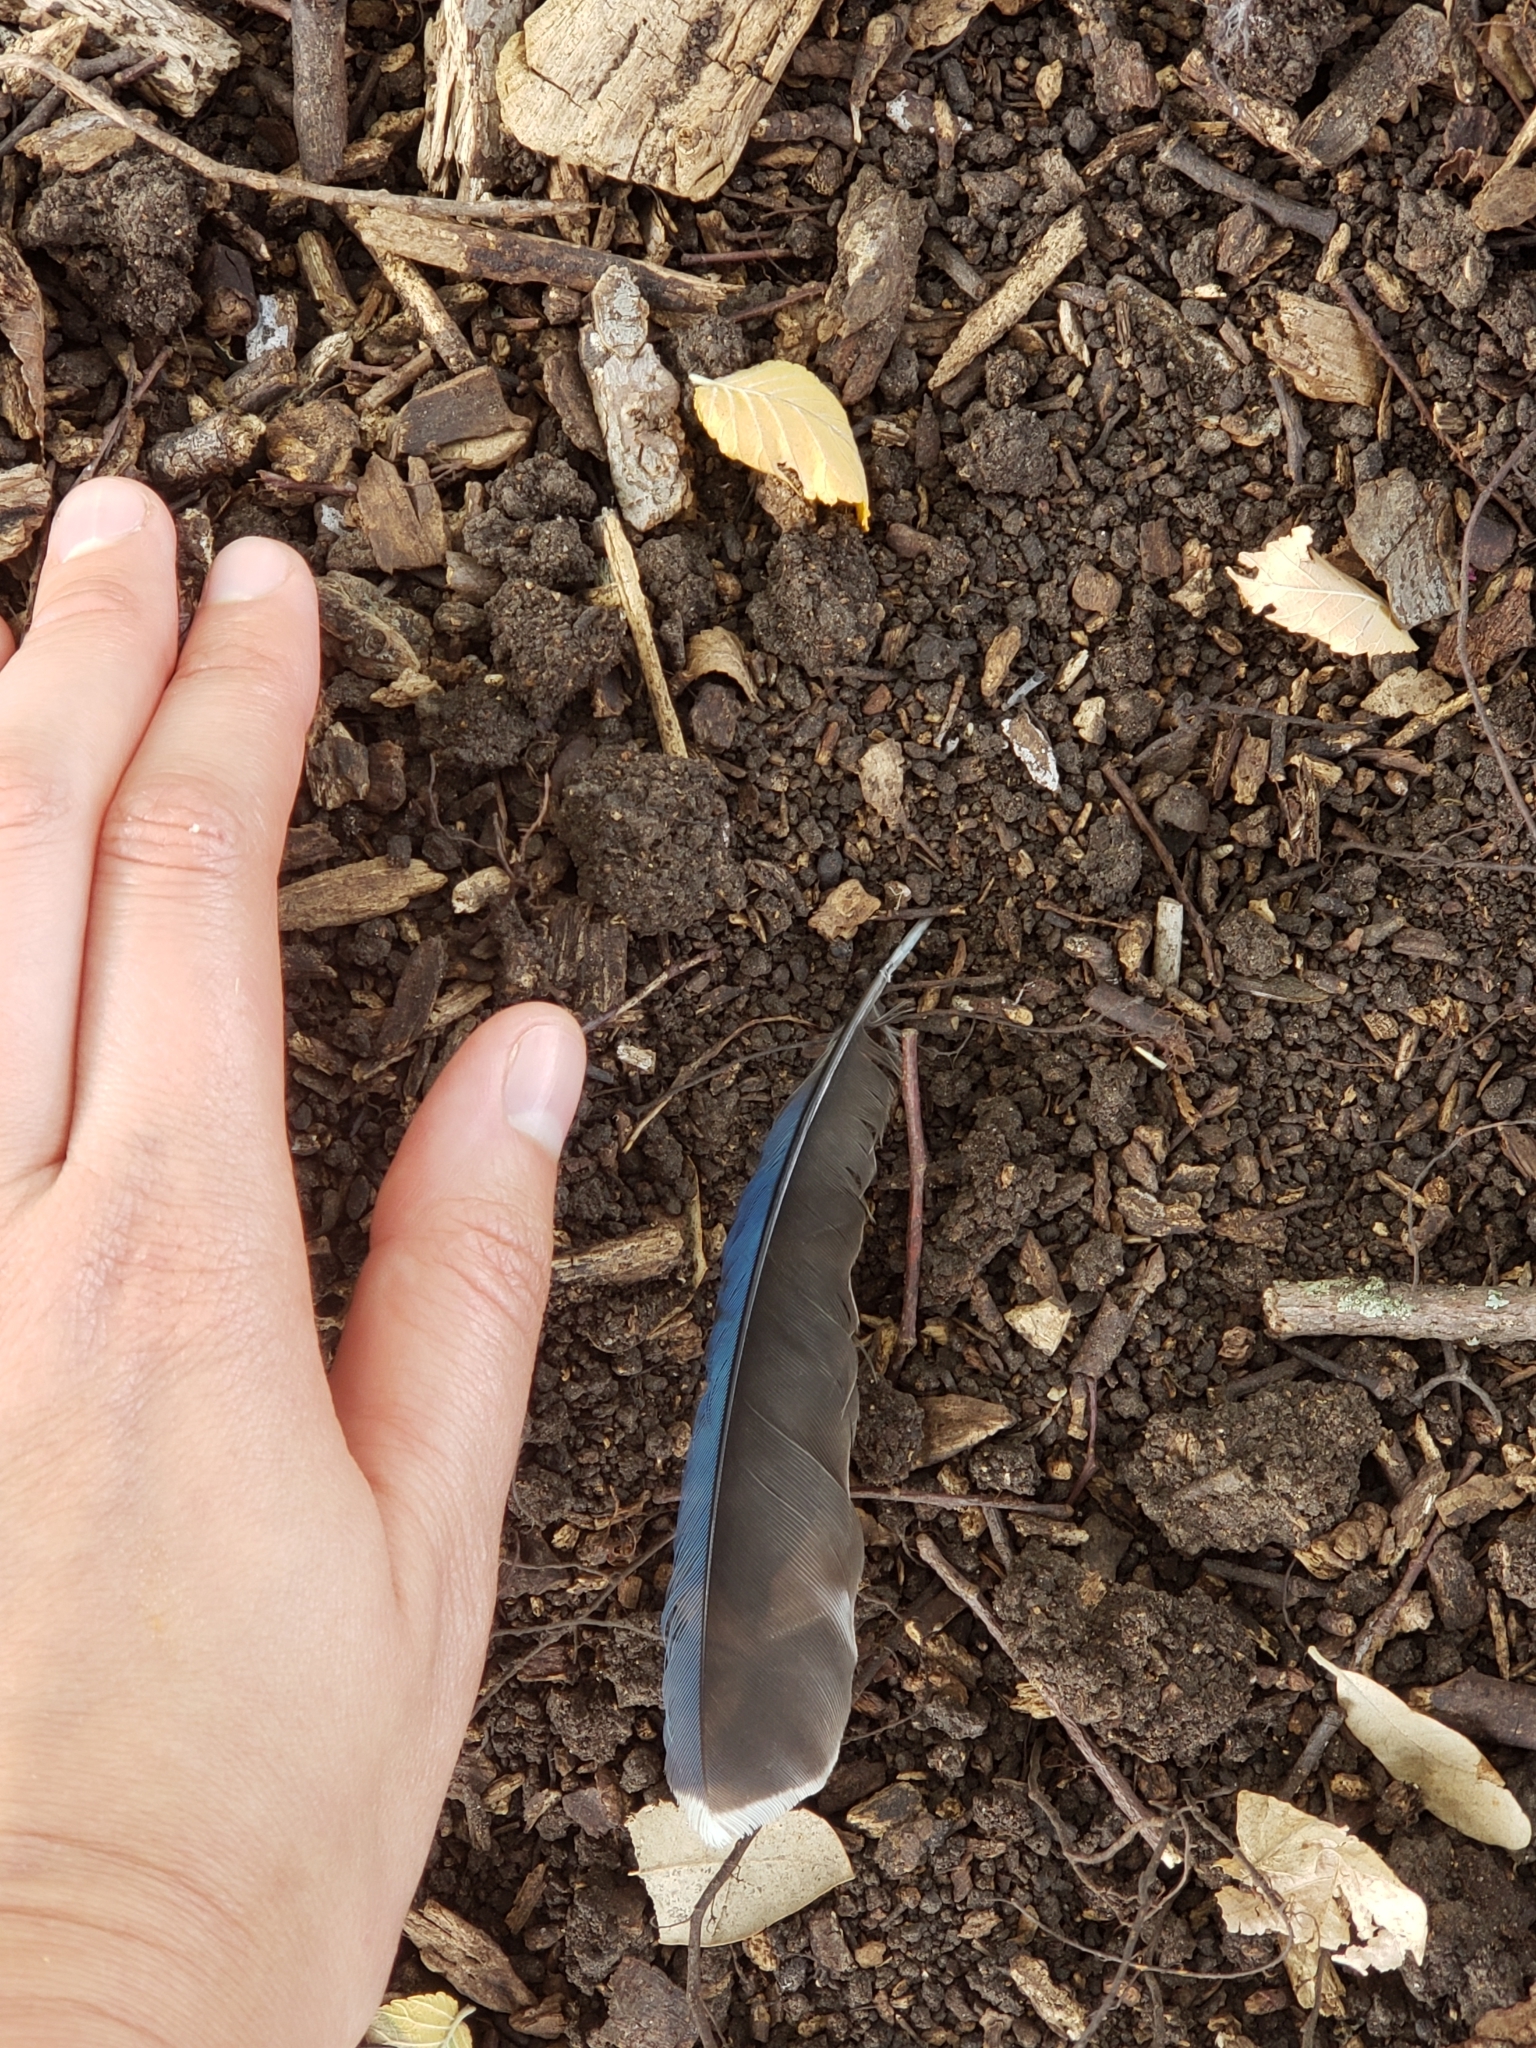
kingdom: Animalia
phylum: Chordata
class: Aves
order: Passeriformes
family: Corvidae
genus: Cyanocitta
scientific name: Cyanocitta cristata
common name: Blue jay
